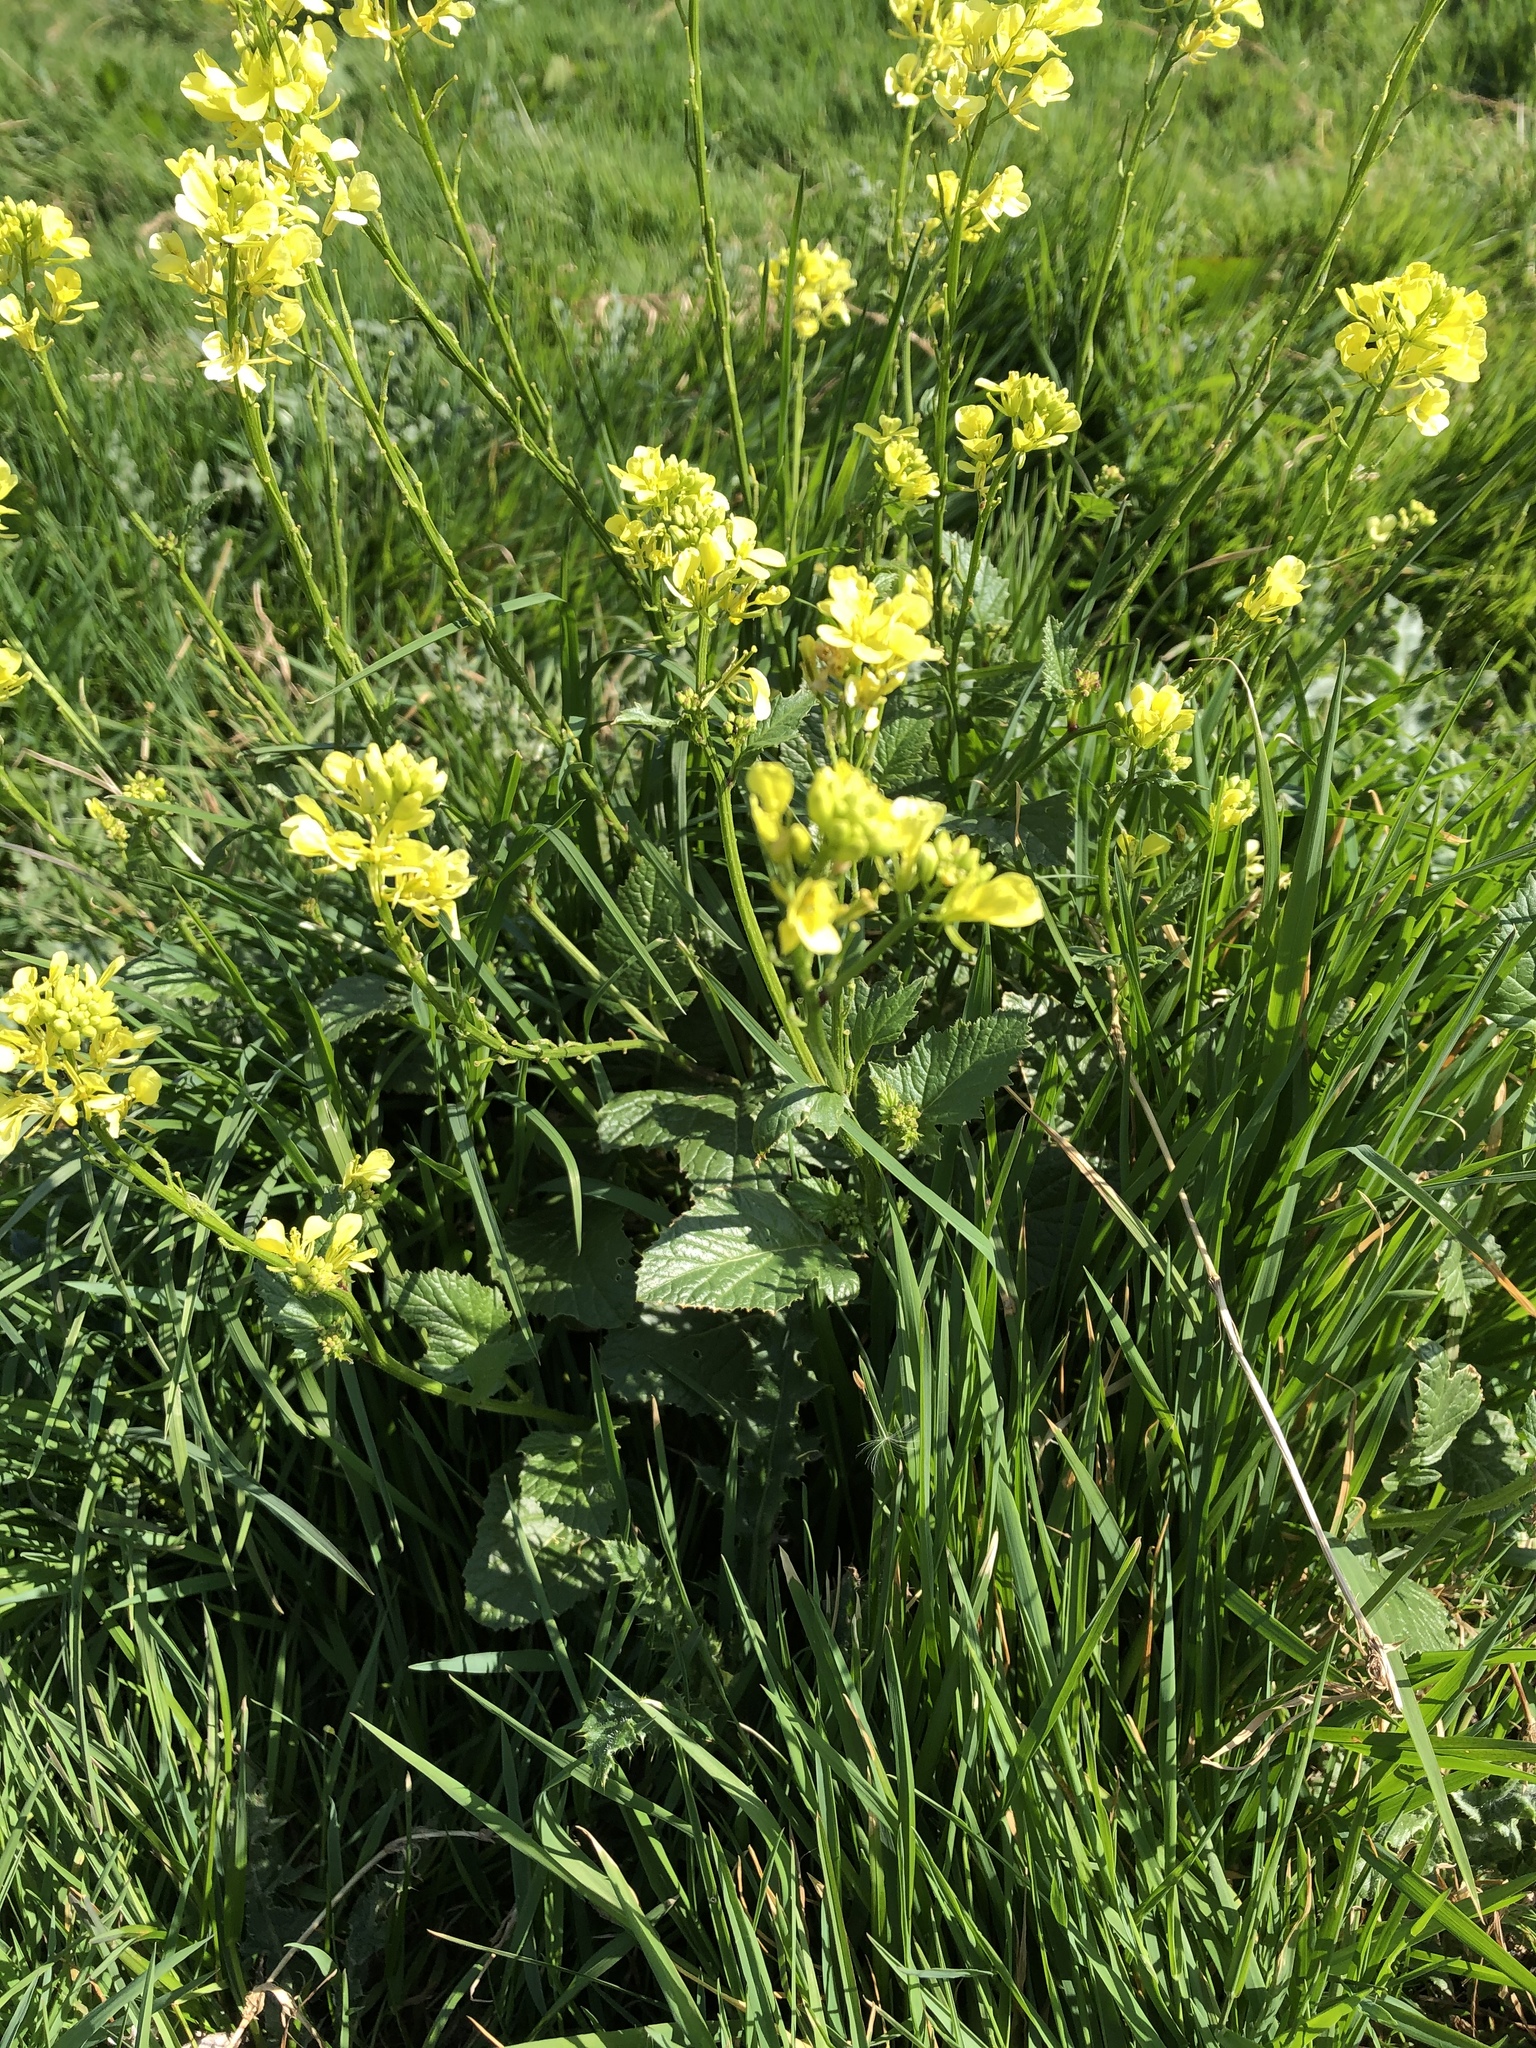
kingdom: Plantae
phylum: Tracheophyta
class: Magnoliopsida
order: Brassicales
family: Brassicaceae
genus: Sinapis
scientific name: Sinapis arvensis
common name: Charlock
